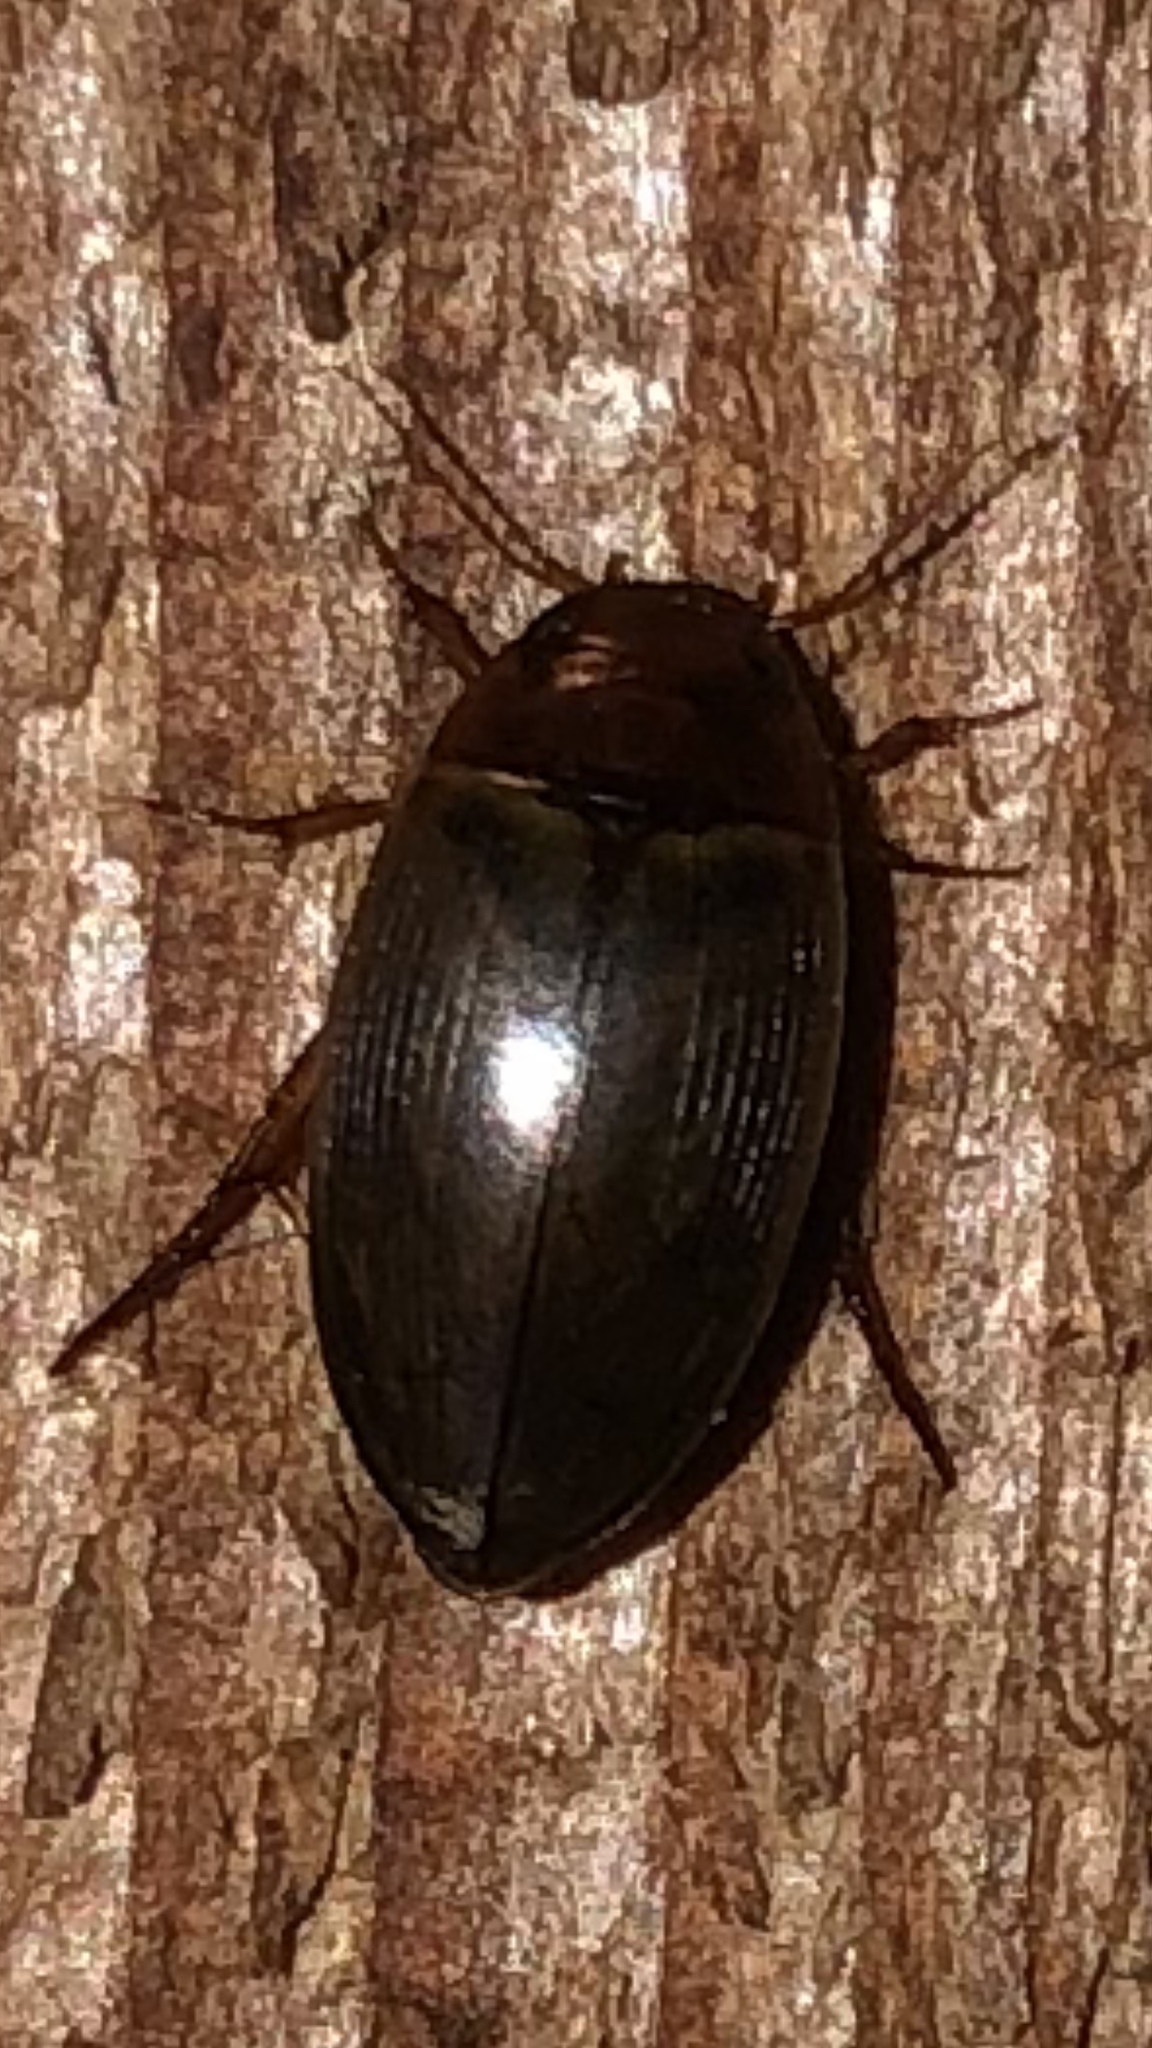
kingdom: Animalia
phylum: Arthropoda
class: Insecta
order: Coleoptera
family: Dytiscidae
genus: Copelatus
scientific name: Copelatus chevrolati
